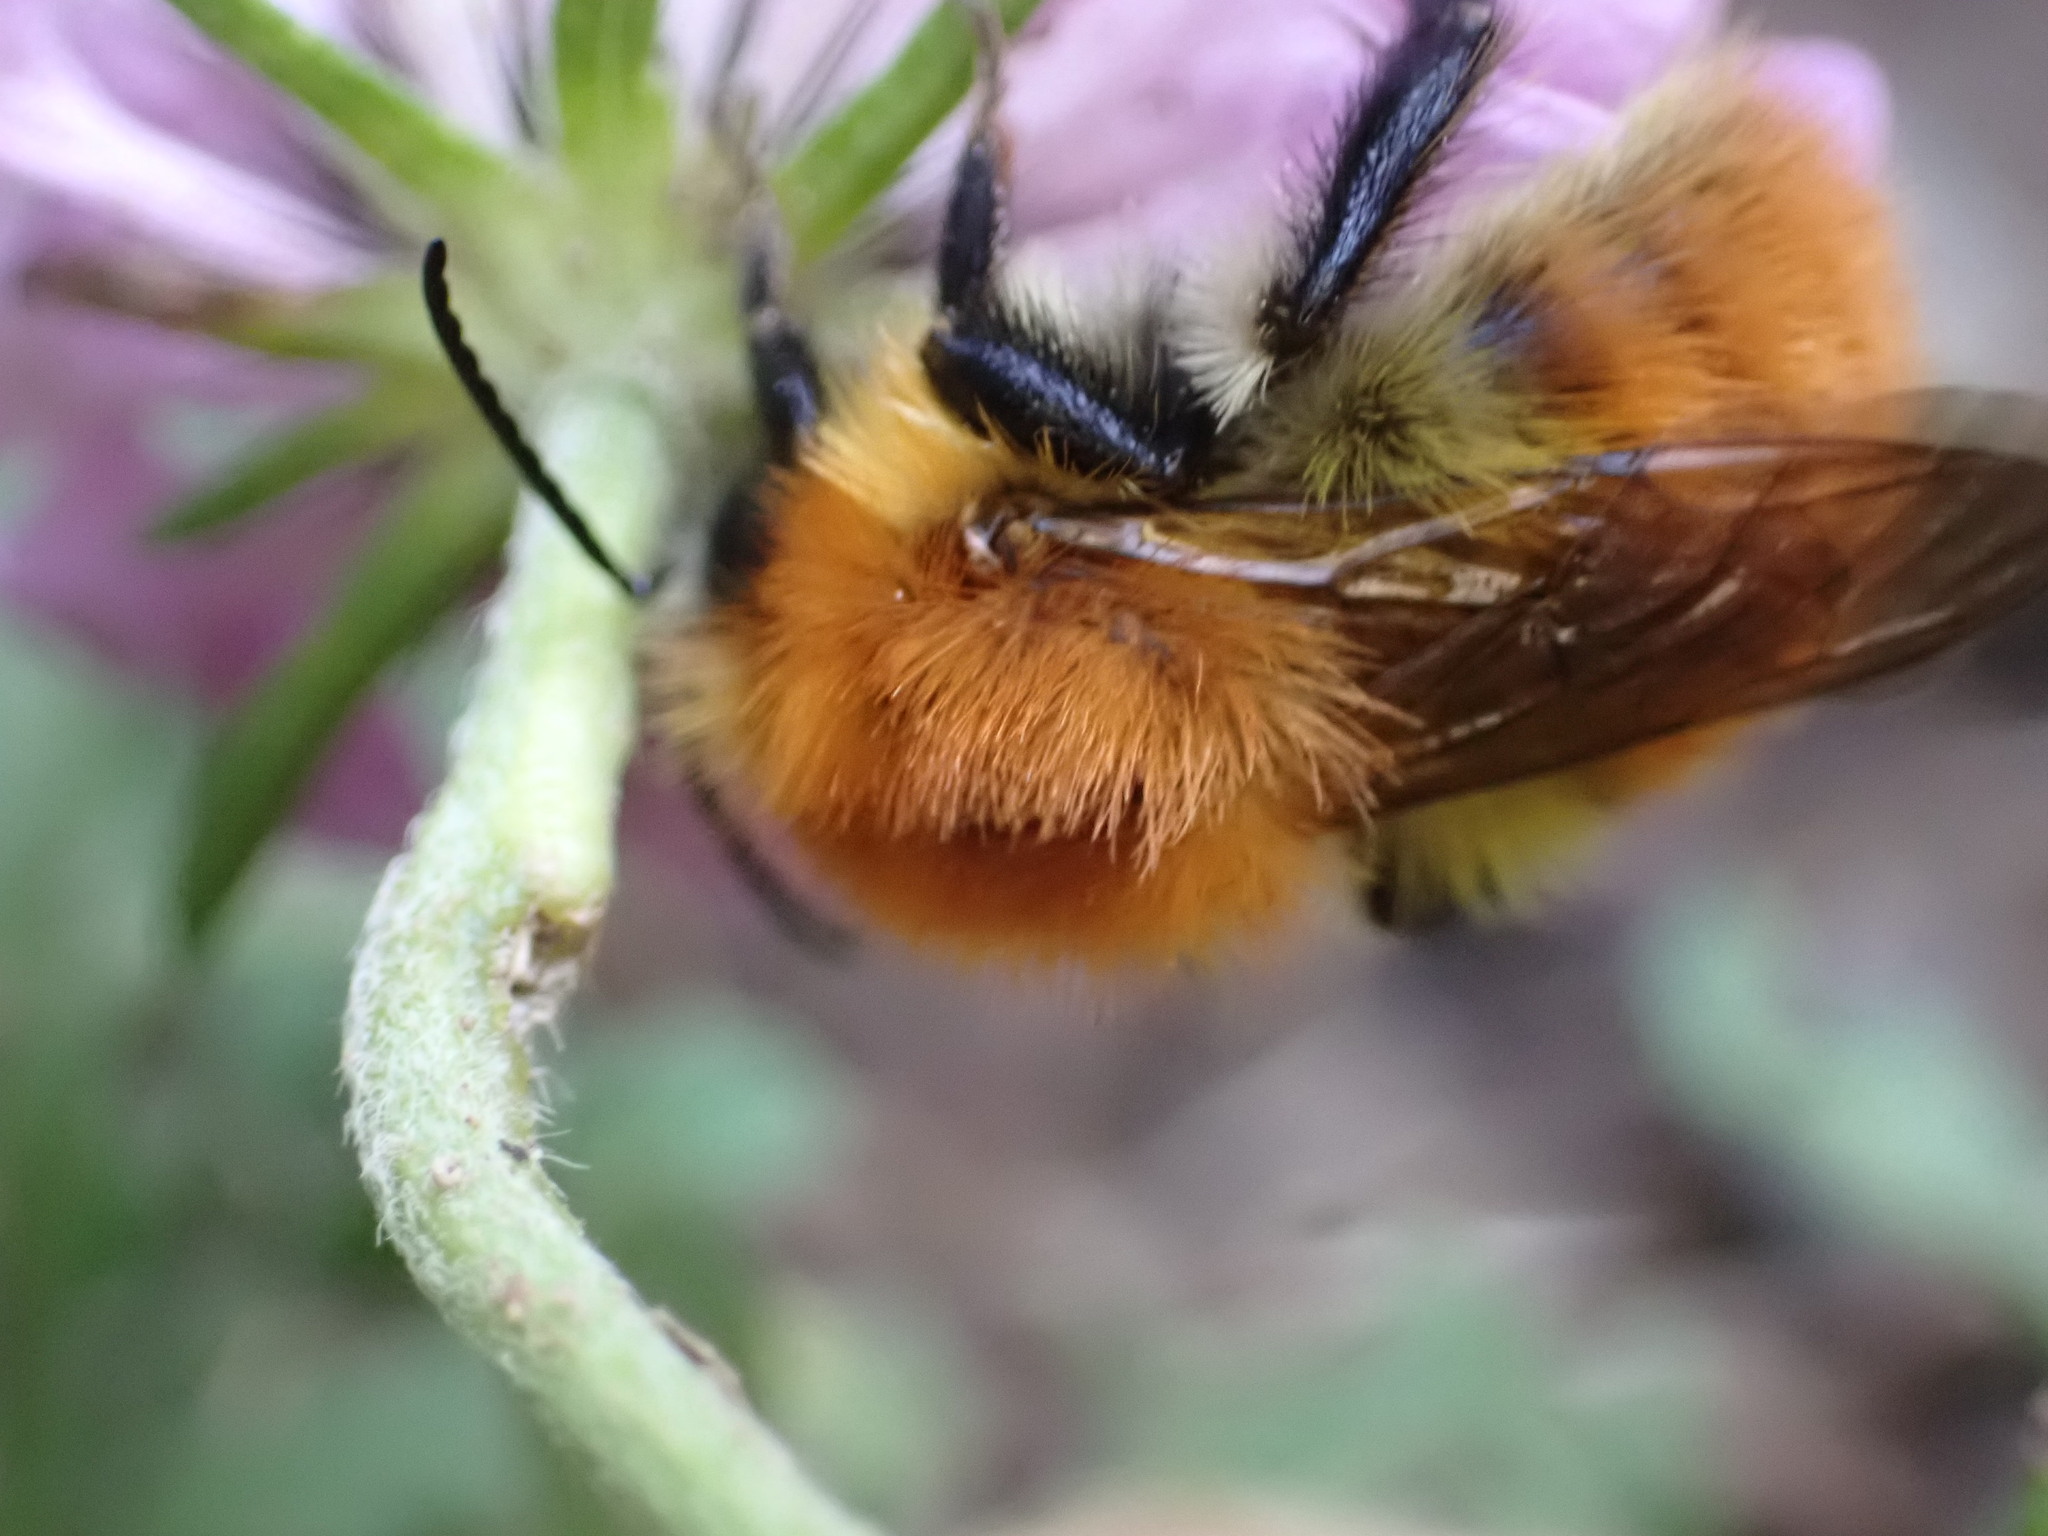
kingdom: Animalia
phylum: Arthropoda
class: Insecta
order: Hymenoptera
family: Apidae
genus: Bombus
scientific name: Bombus pascuorum
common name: Common carder bee
